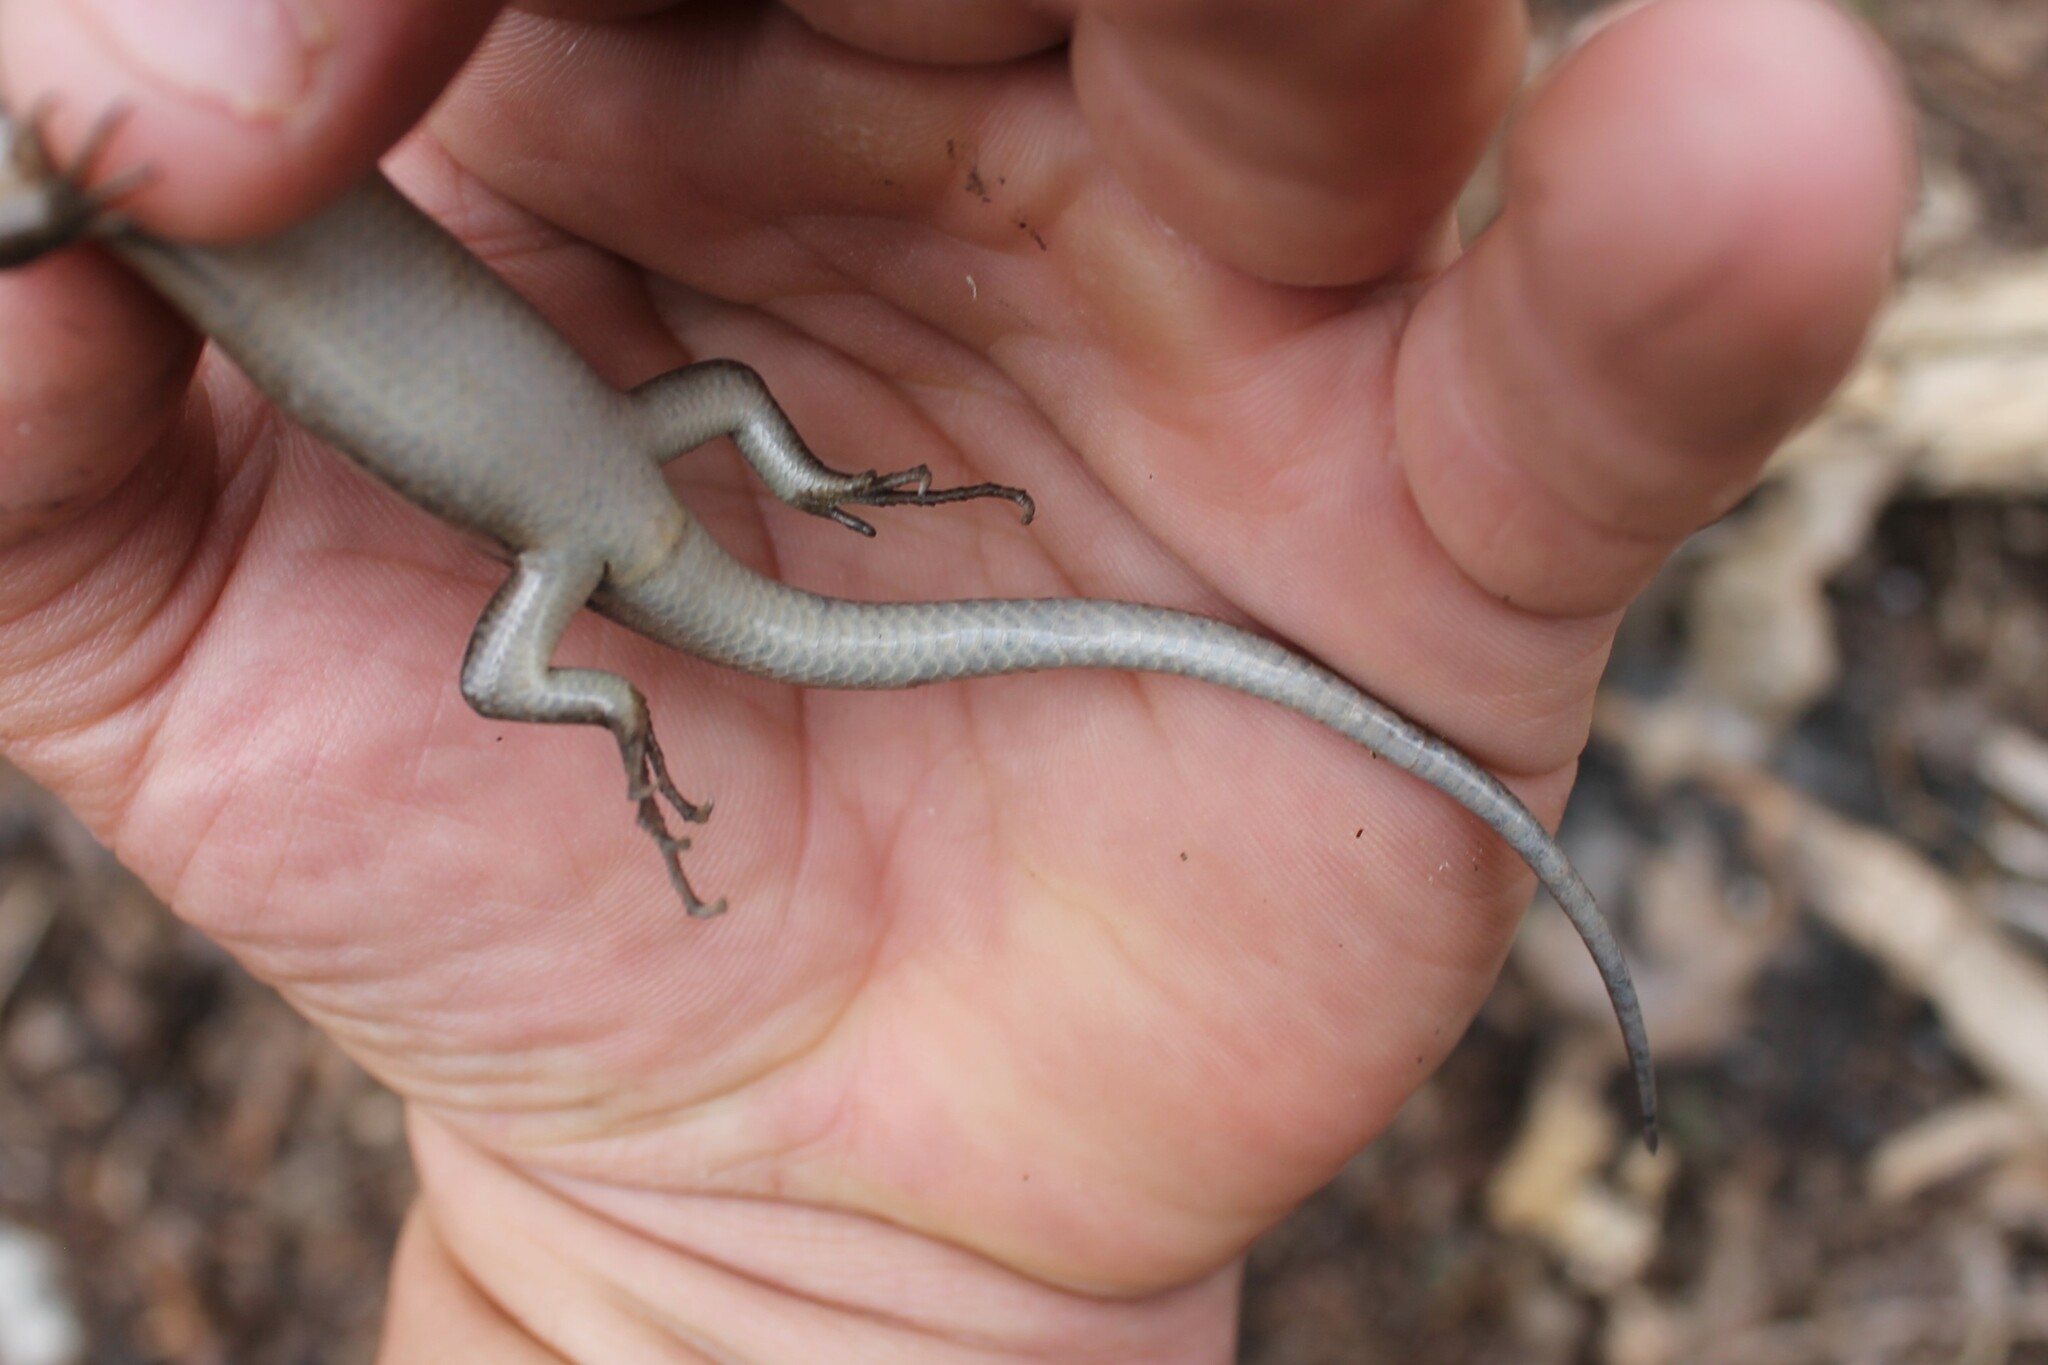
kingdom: Animalia
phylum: Chordata
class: Squamata
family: Scincidae
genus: Plestiodon
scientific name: Plestiodon fasciatus
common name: Five-lined skink
